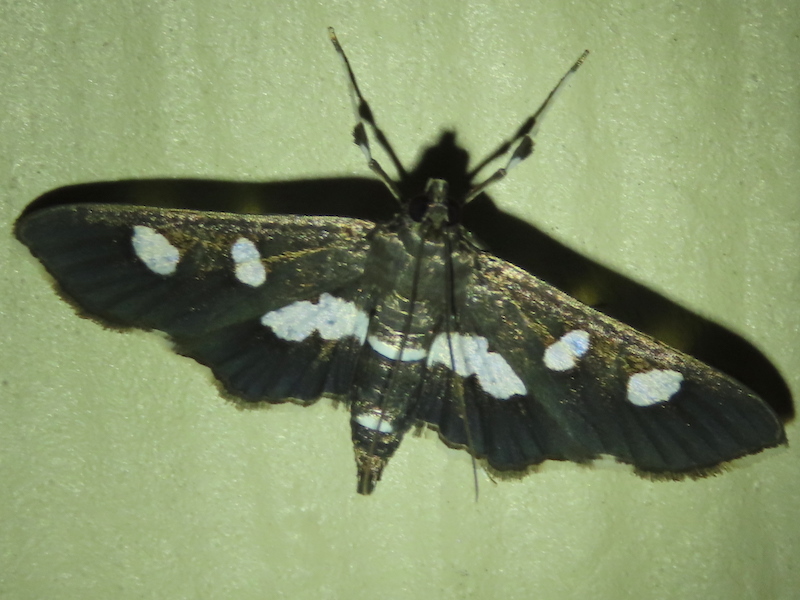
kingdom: Animalia
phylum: Arthropoda
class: Insecta
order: Lepidoptera
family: Crambidae
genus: Desmia
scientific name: Desmia
